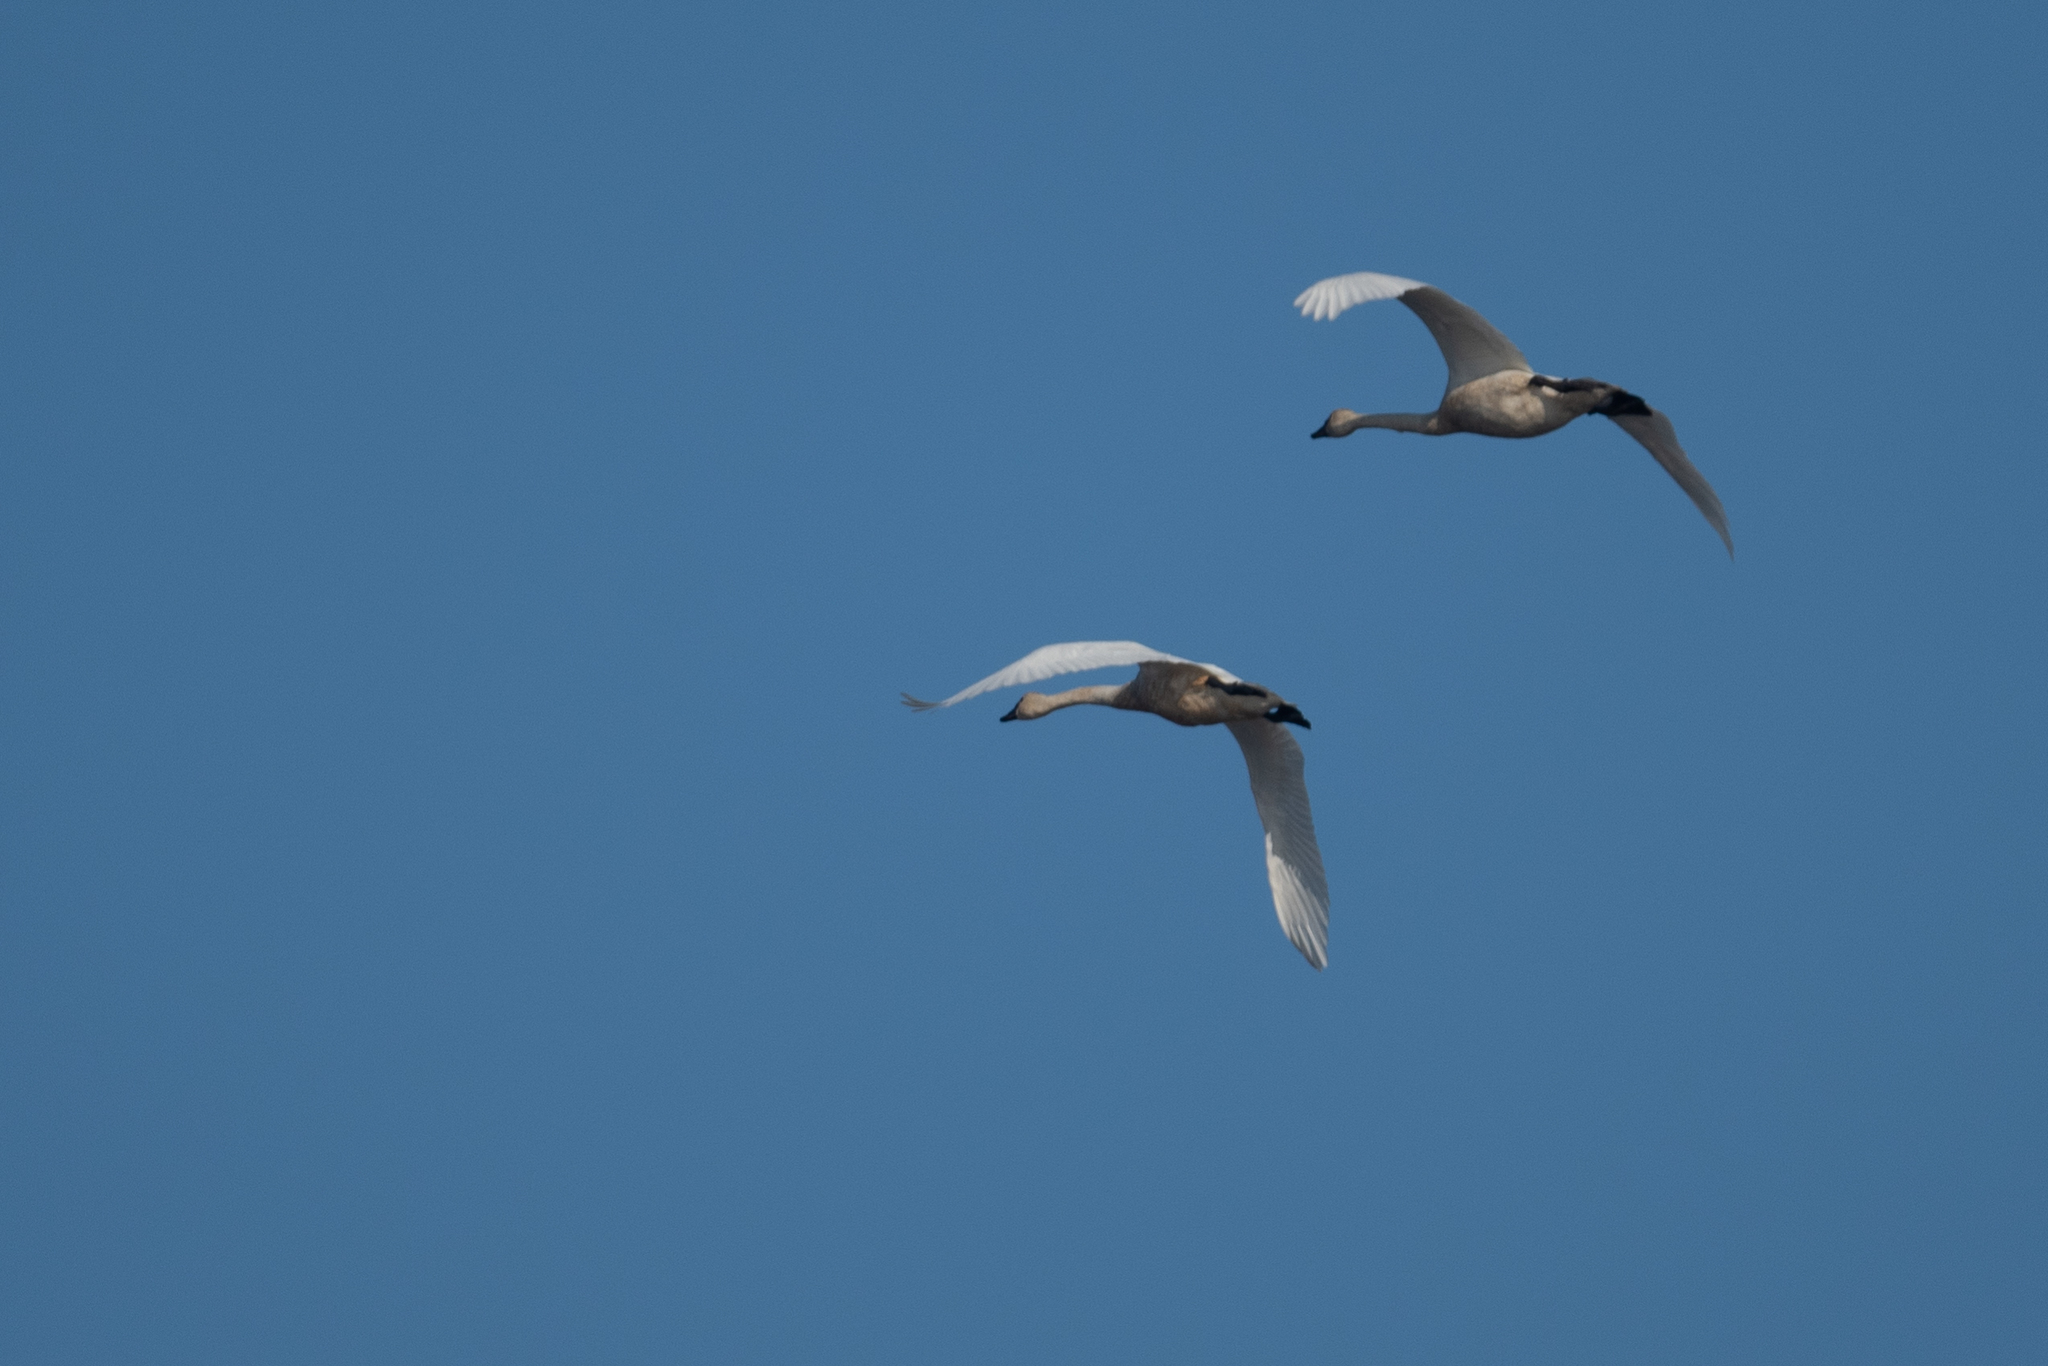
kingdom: Animalia
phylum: Chordata
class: Aves
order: Anseriformes
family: Anatidae
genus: Cygnus
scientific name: Cygnus columbianus
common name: Tundra swan
